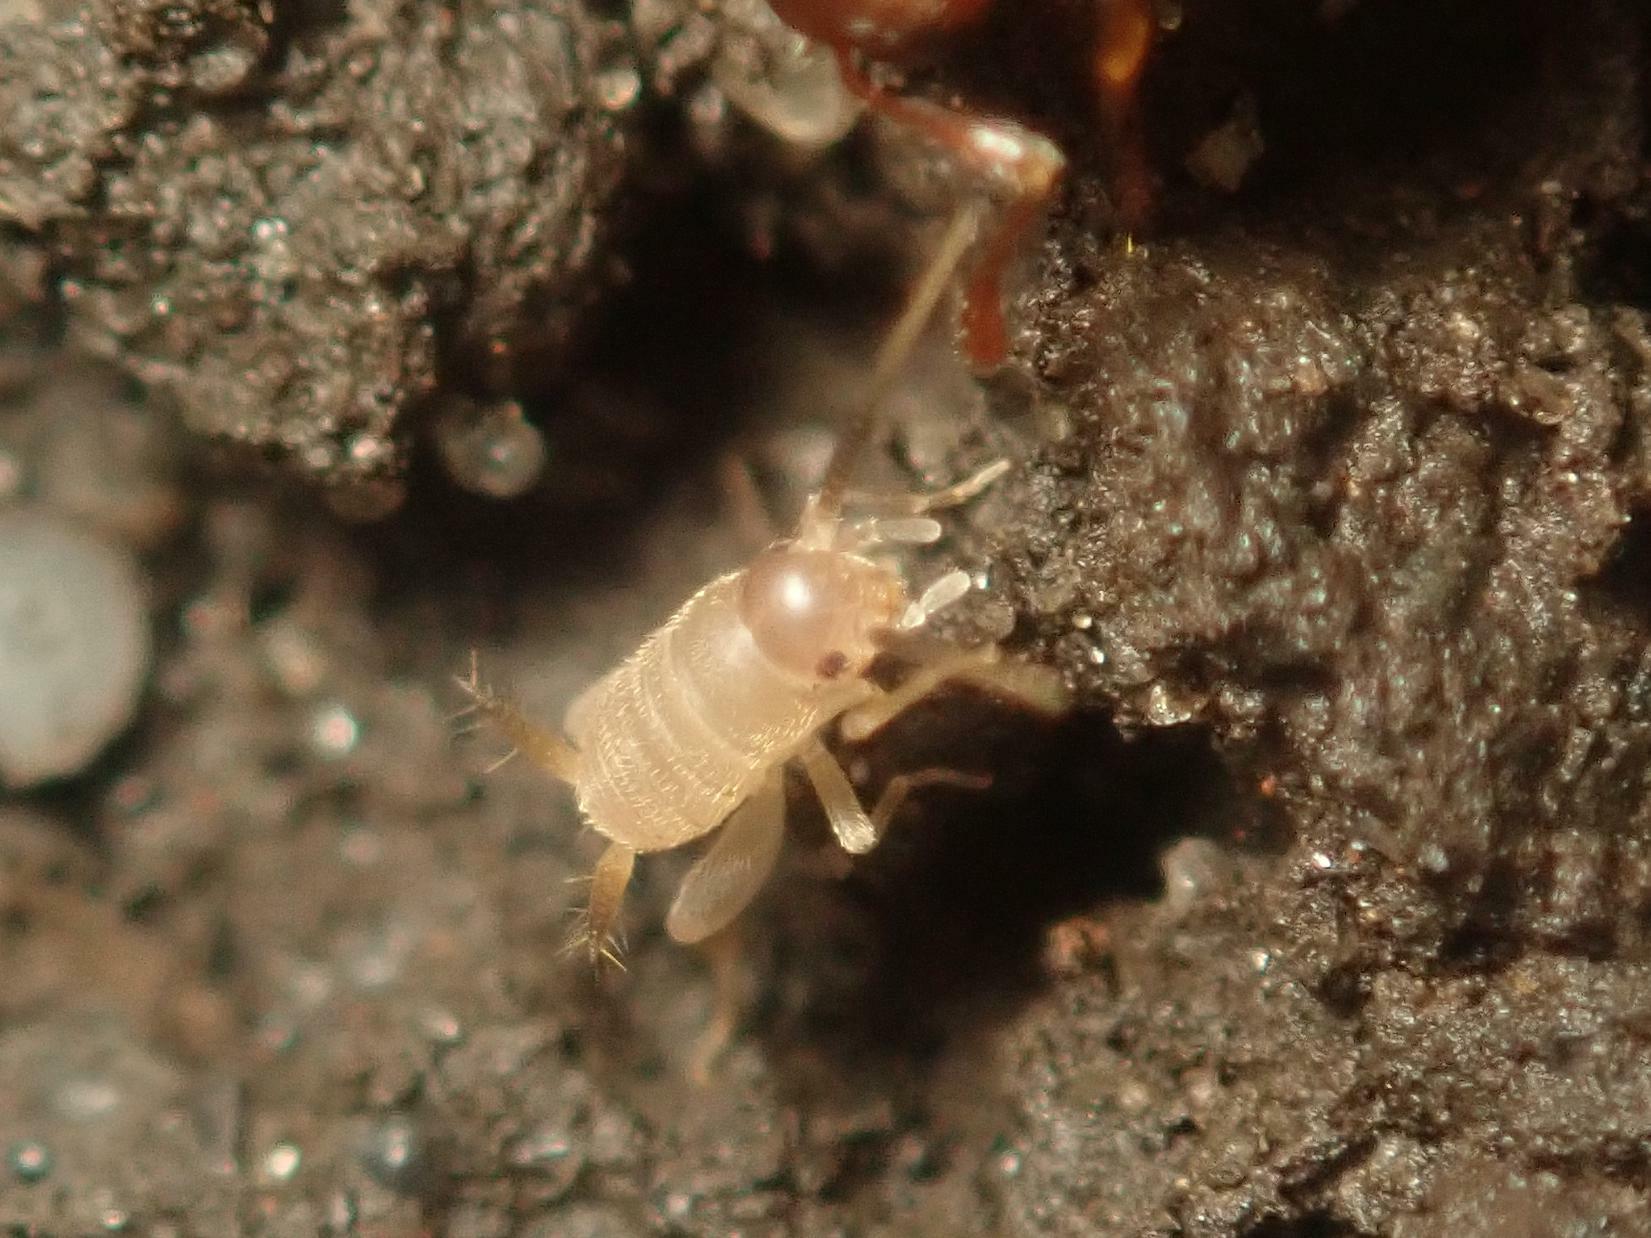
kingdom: Animalia
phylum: Arthropoda
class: Insecta
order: Orthoptera
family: Myrmecophilidae
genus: Myrmecophilus
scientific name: Myrmecophilus acervorum
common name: Ants-nest cricket
